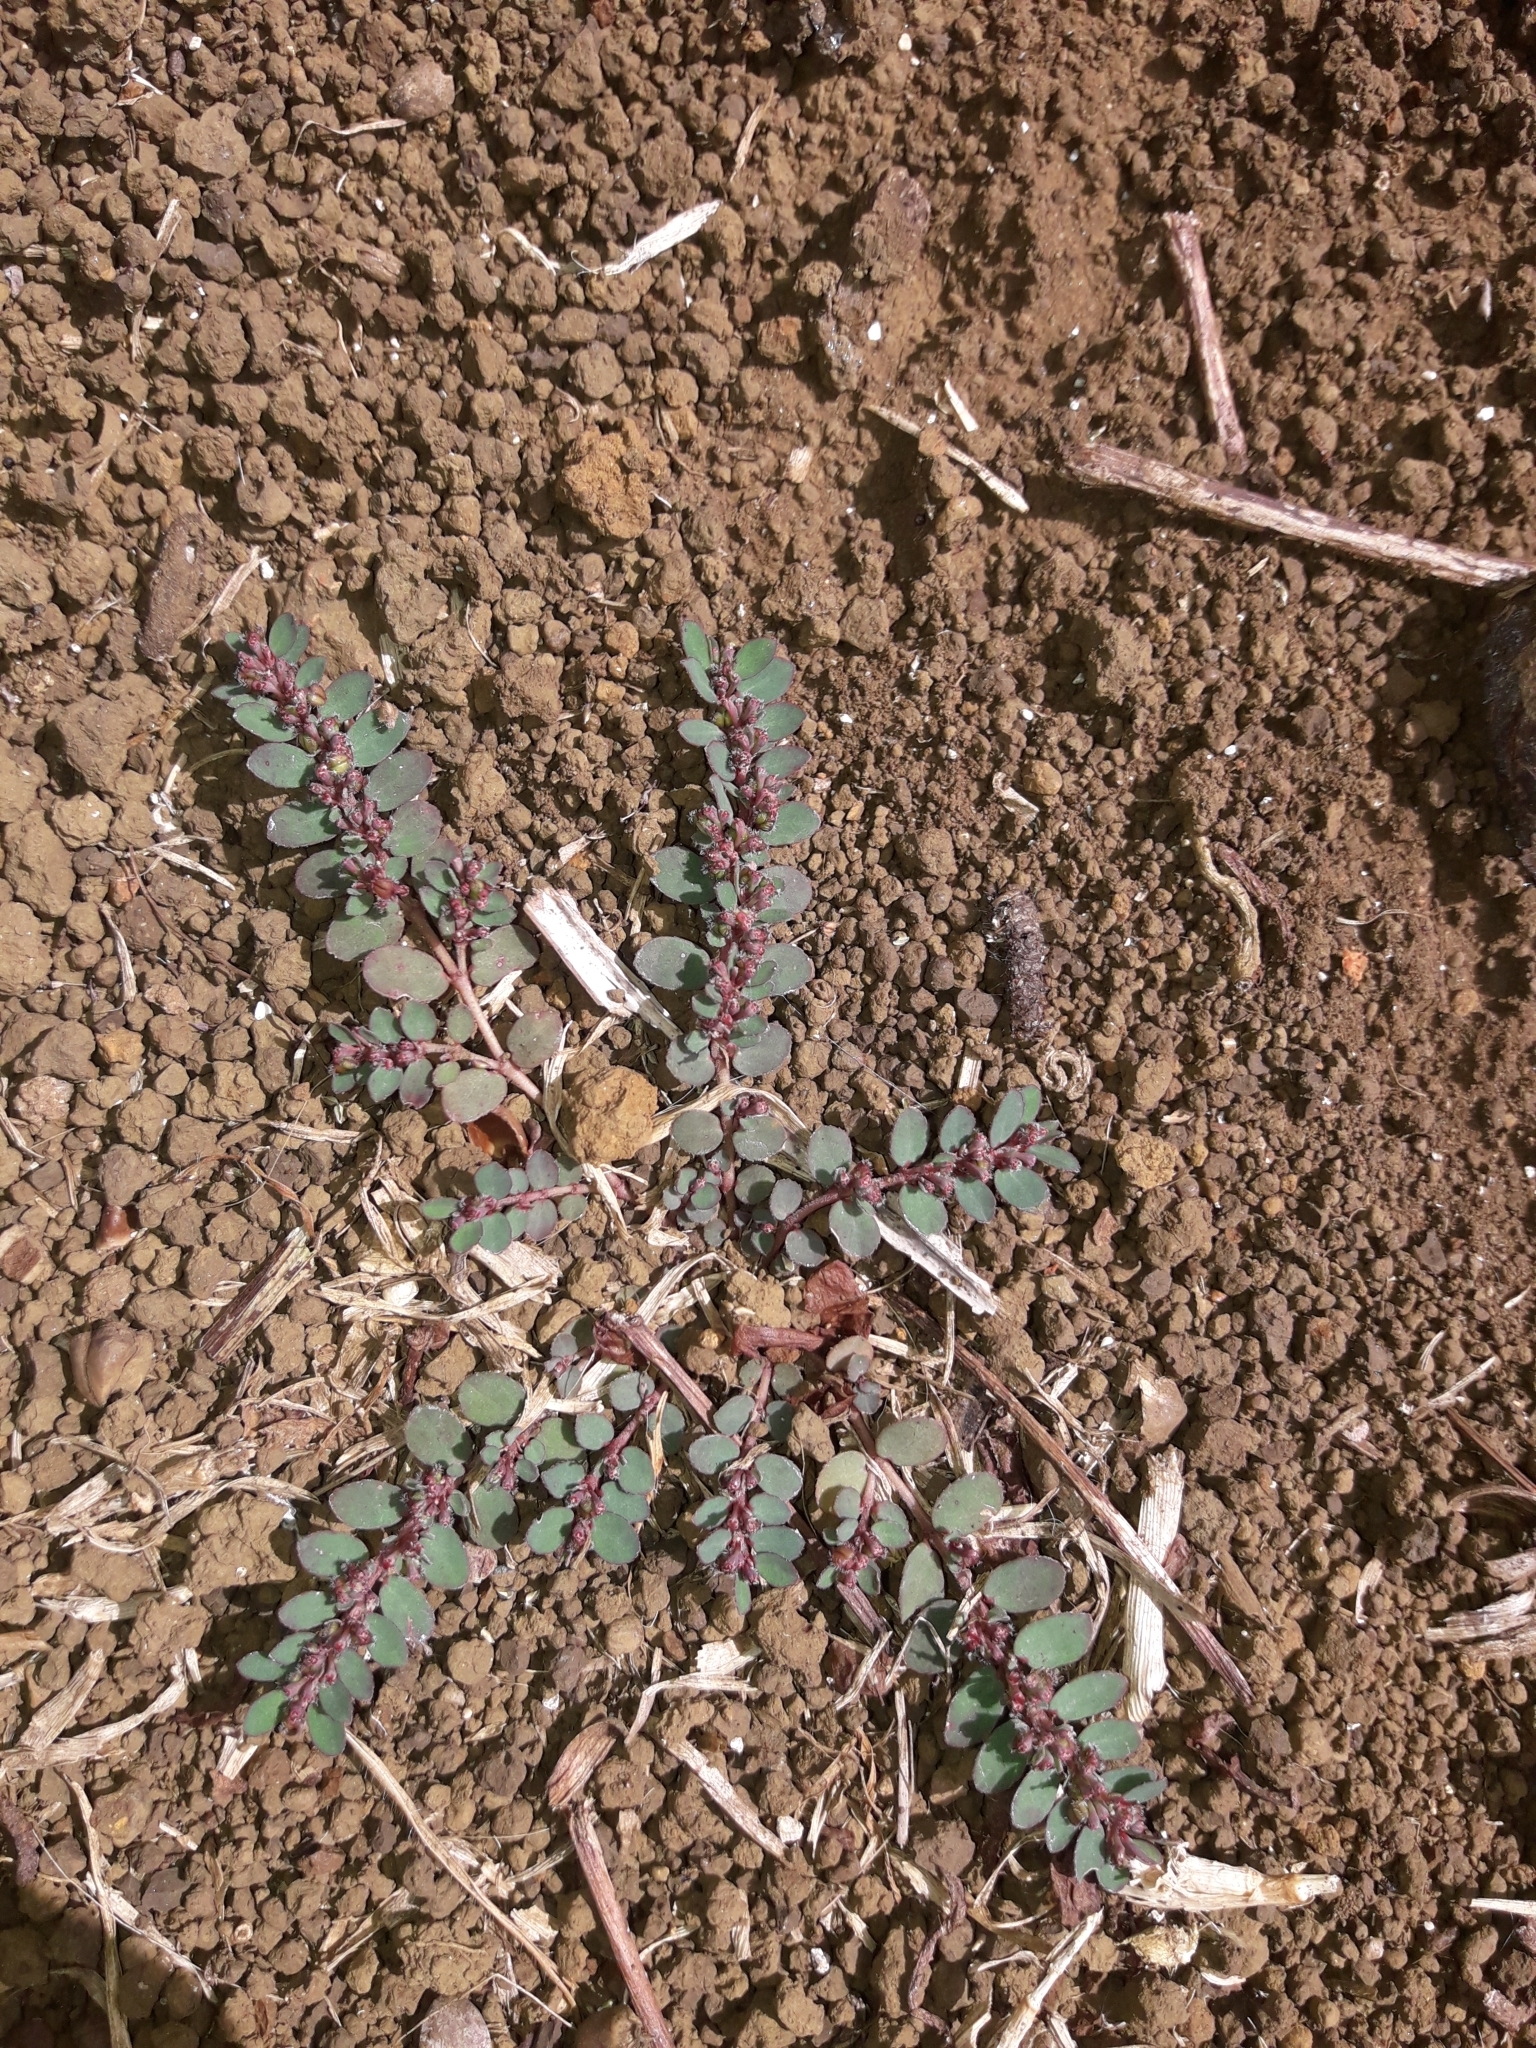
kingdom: Plantae
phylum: Tracheophyta
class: Magnoliopsida
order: Malpighiales
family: Euphorbiaceae
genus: Euphorbia
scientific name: Euphorbia prostrata
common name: Prostrate sandmat
